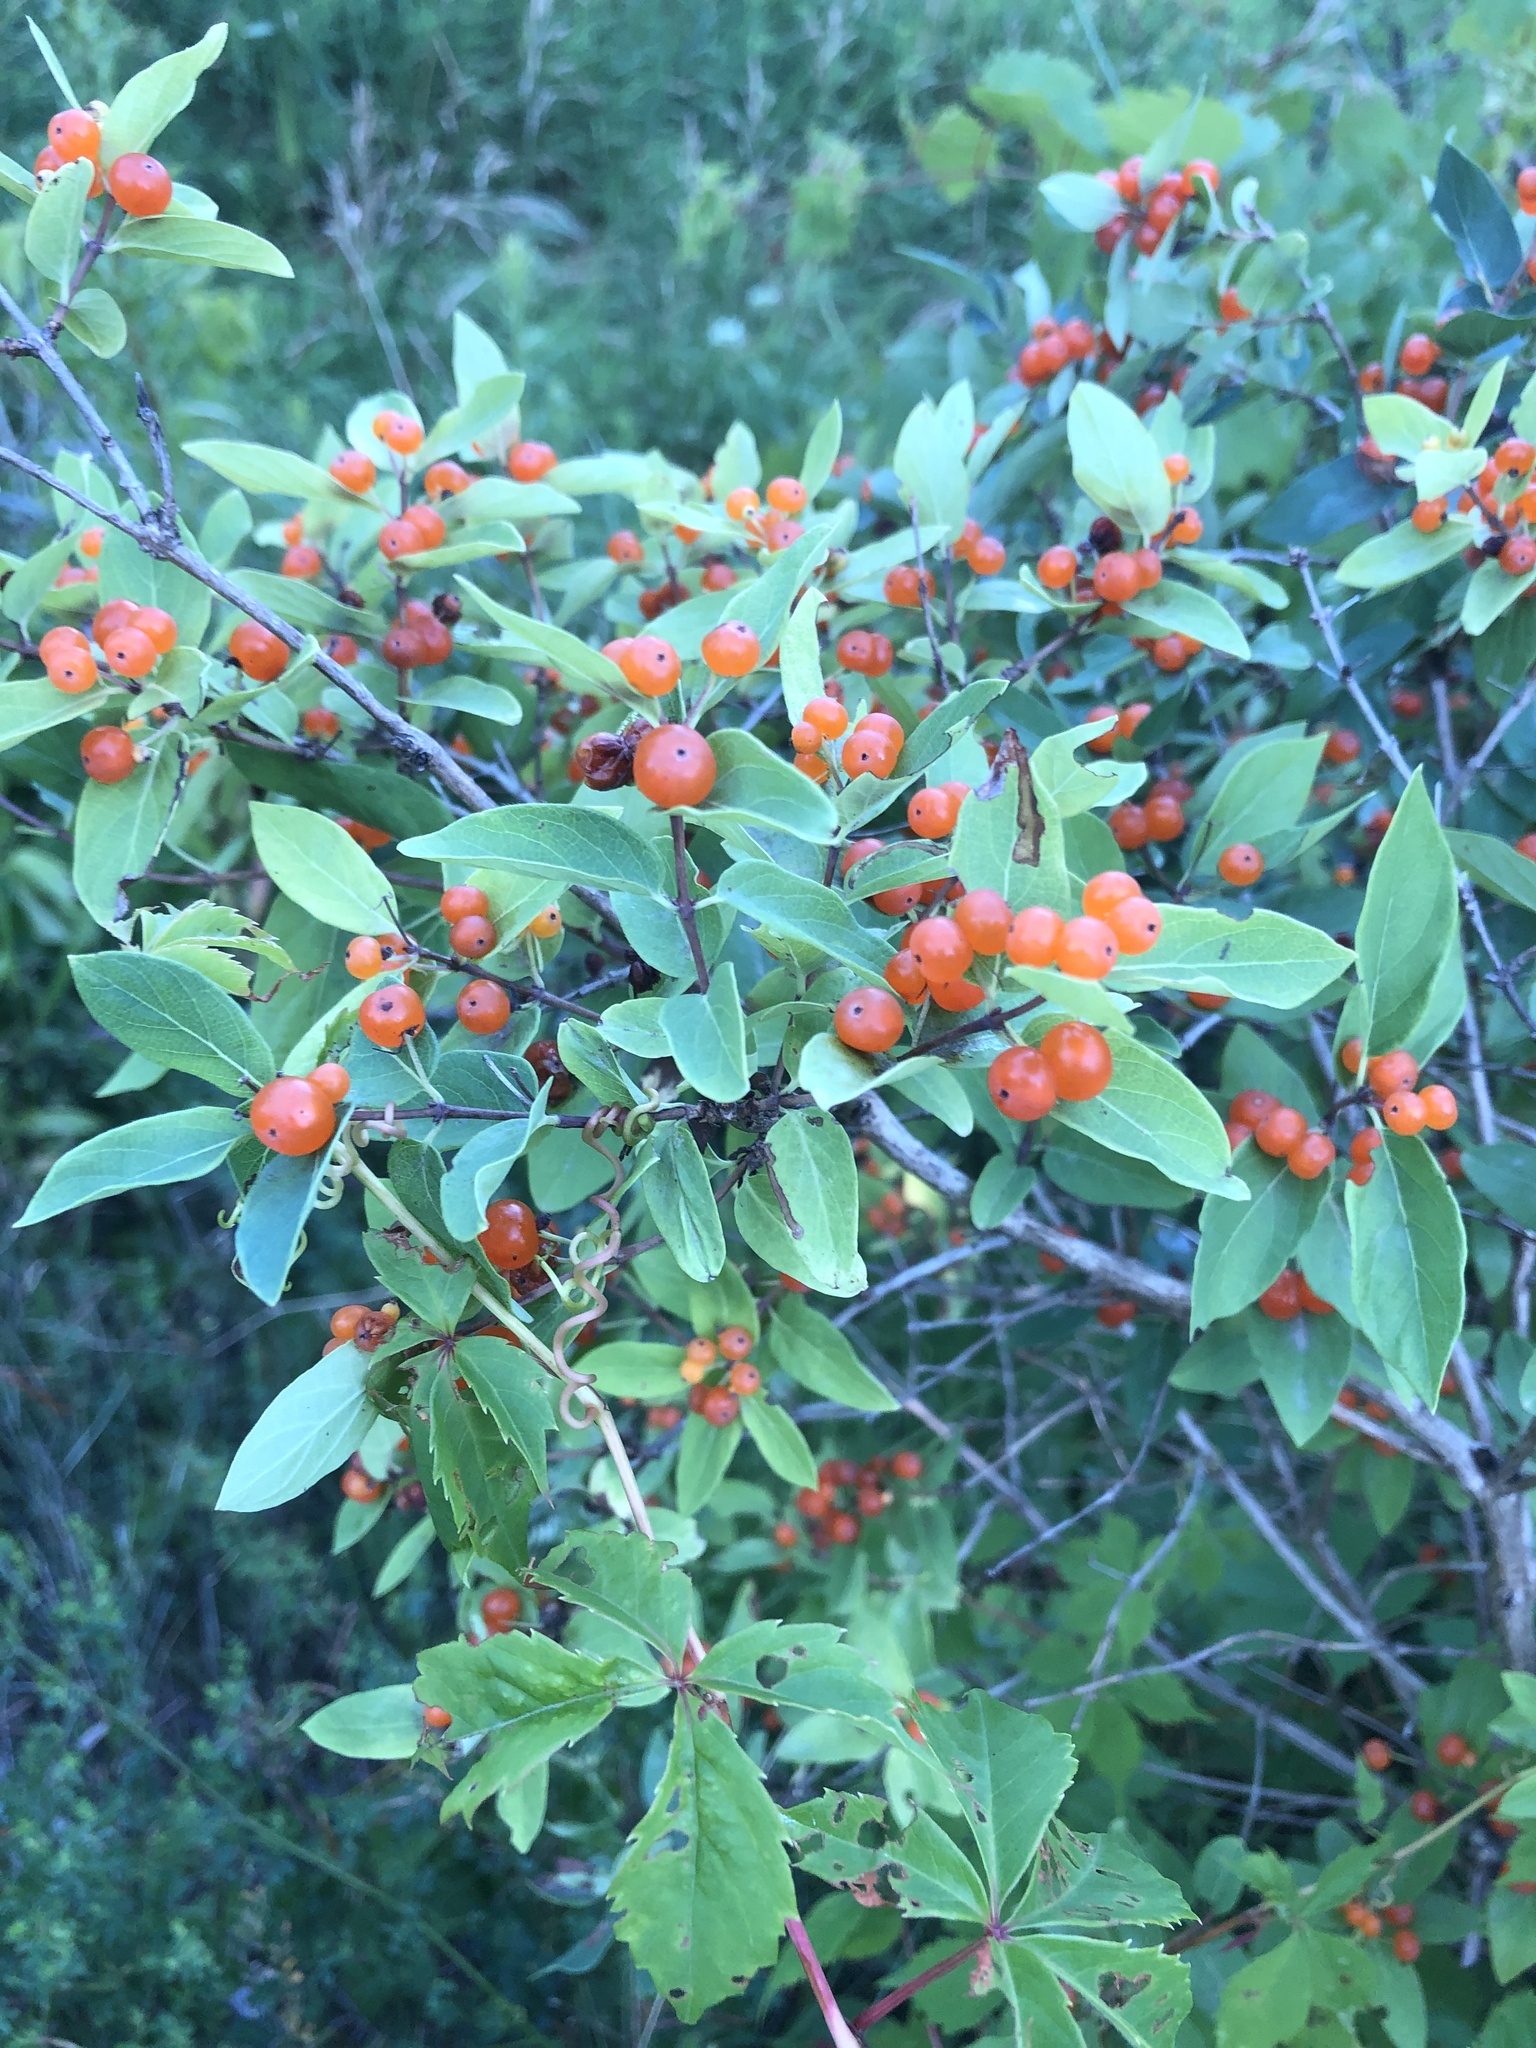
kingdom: Plantae
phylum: Tracheophyta
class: Magnoliopsida
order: Dipsacales
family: Caprifoliaceae
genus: Lonicera
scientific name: Lonicera tatarica
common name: Tatarian honeysuckle
